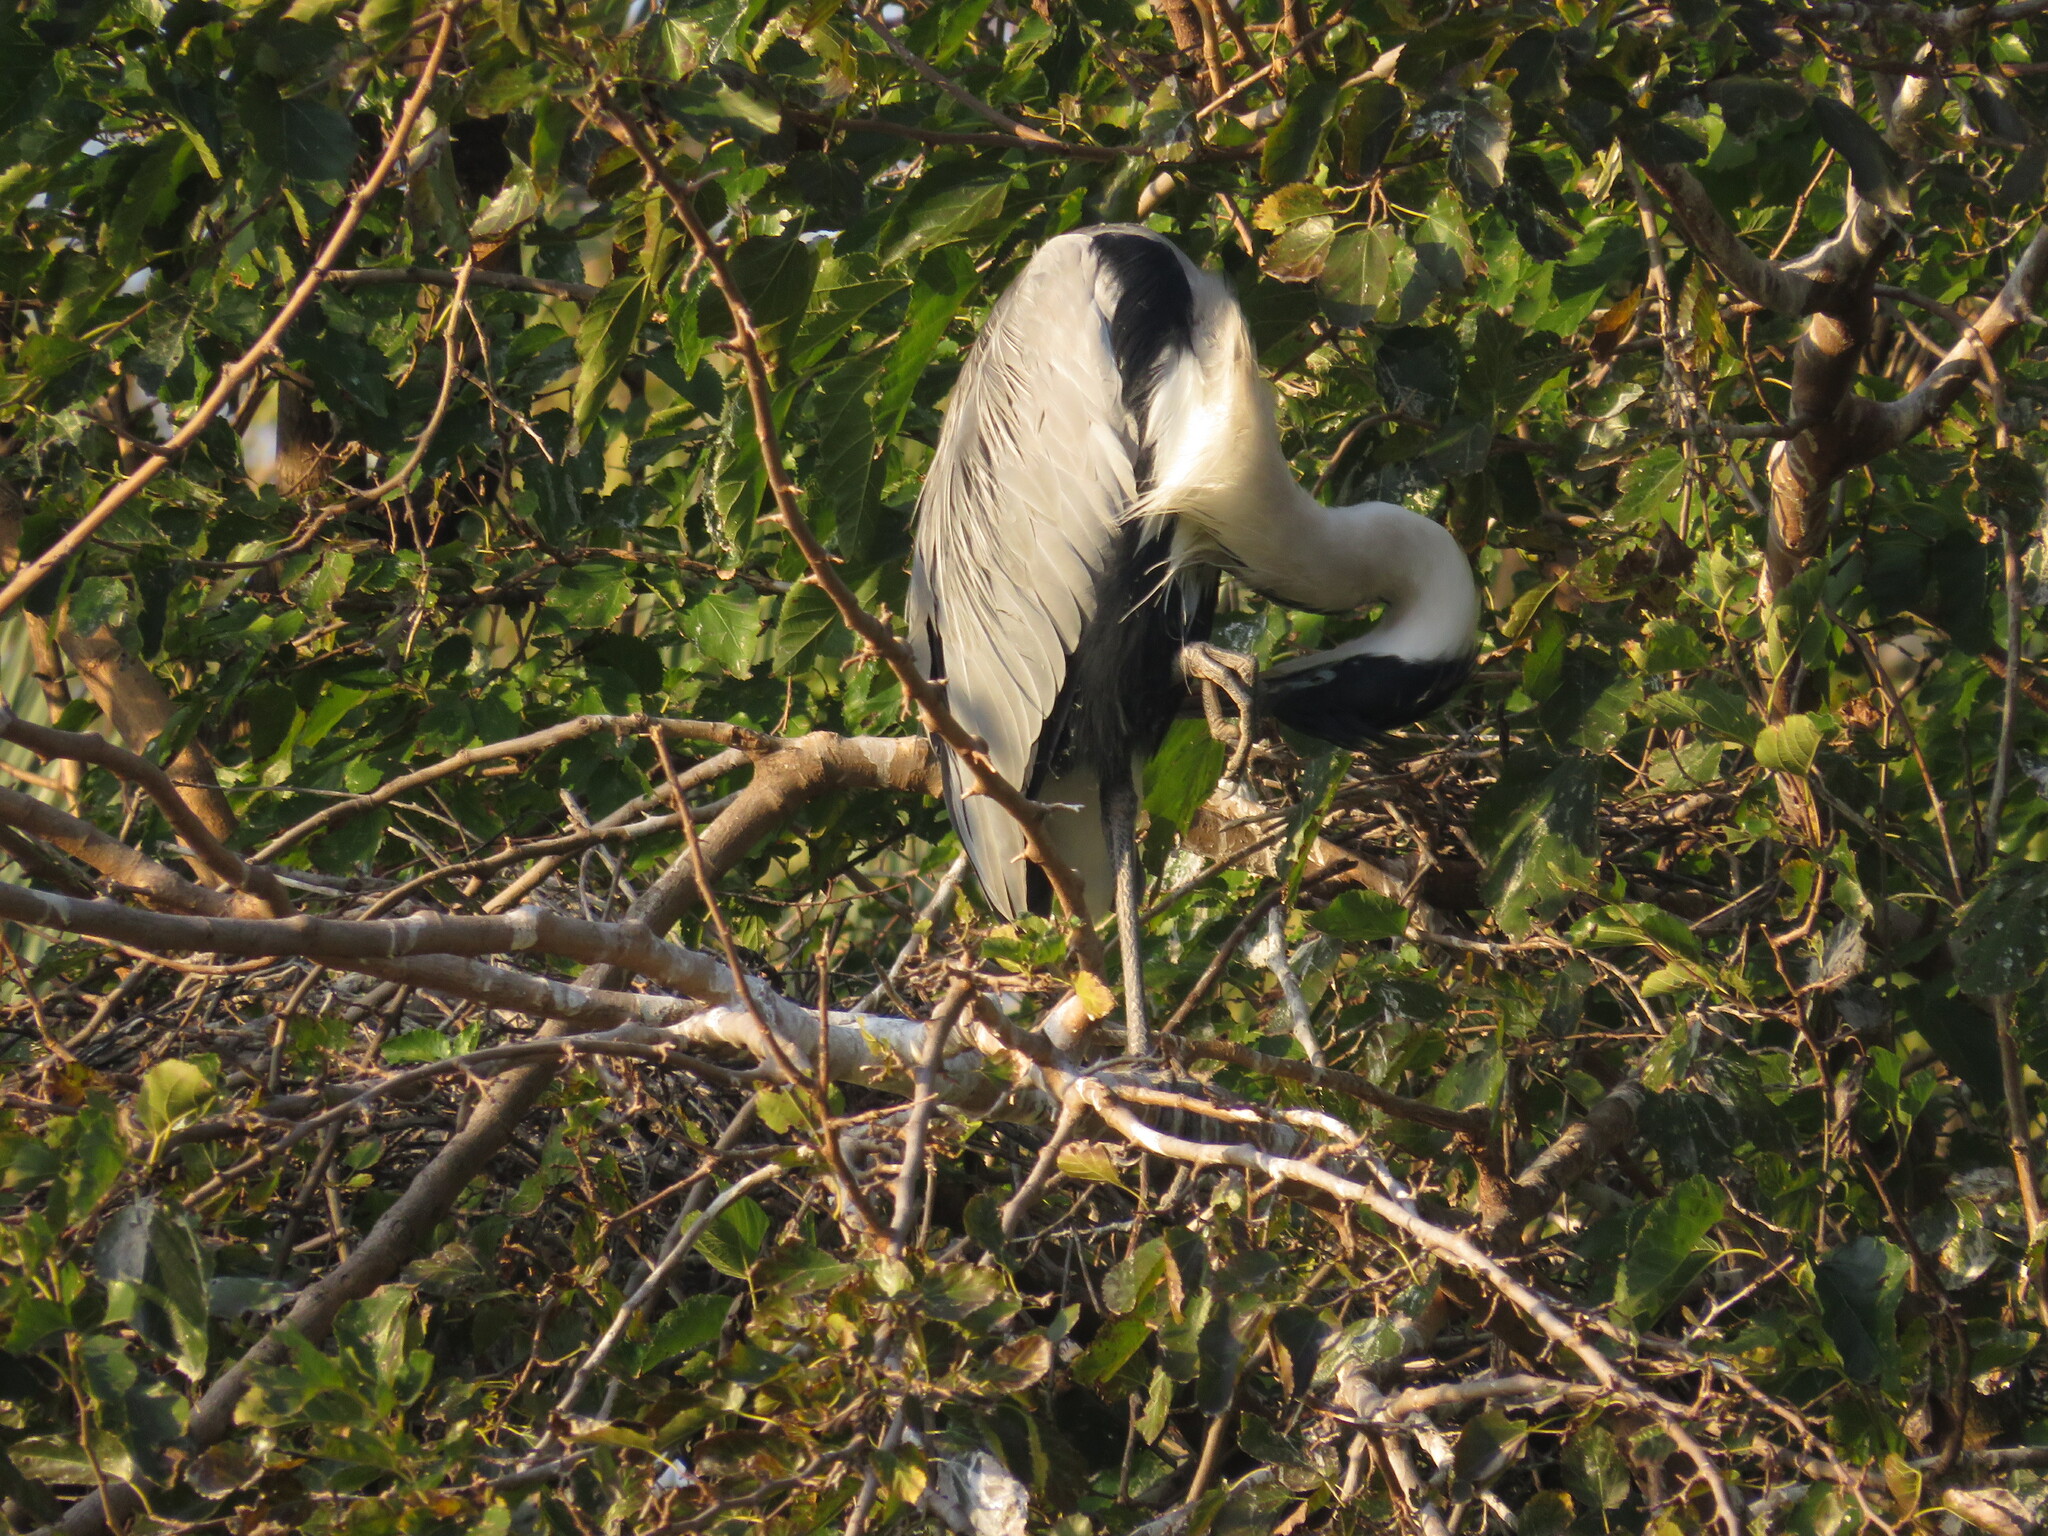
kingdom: Animalia
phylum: Chordata
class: Aves
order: Pelecaniformes
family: Ardeidae
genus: Ardea
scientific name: Ardea cocoi
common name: Cocoi heron
